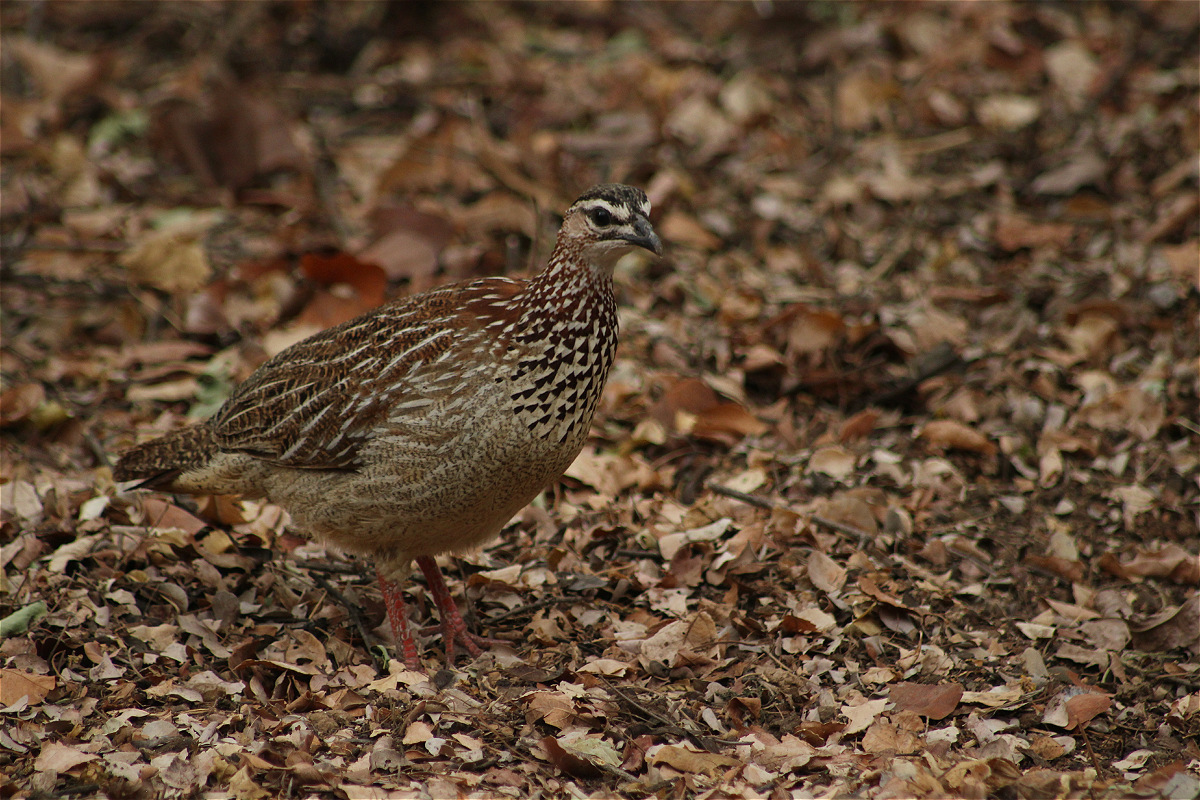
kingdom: Animalia
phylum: Chordata
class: Aves
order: Galliformes
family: Phasianidae
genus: Ortygornis
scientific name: Ortygornis sephaena
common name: Crested francolin
